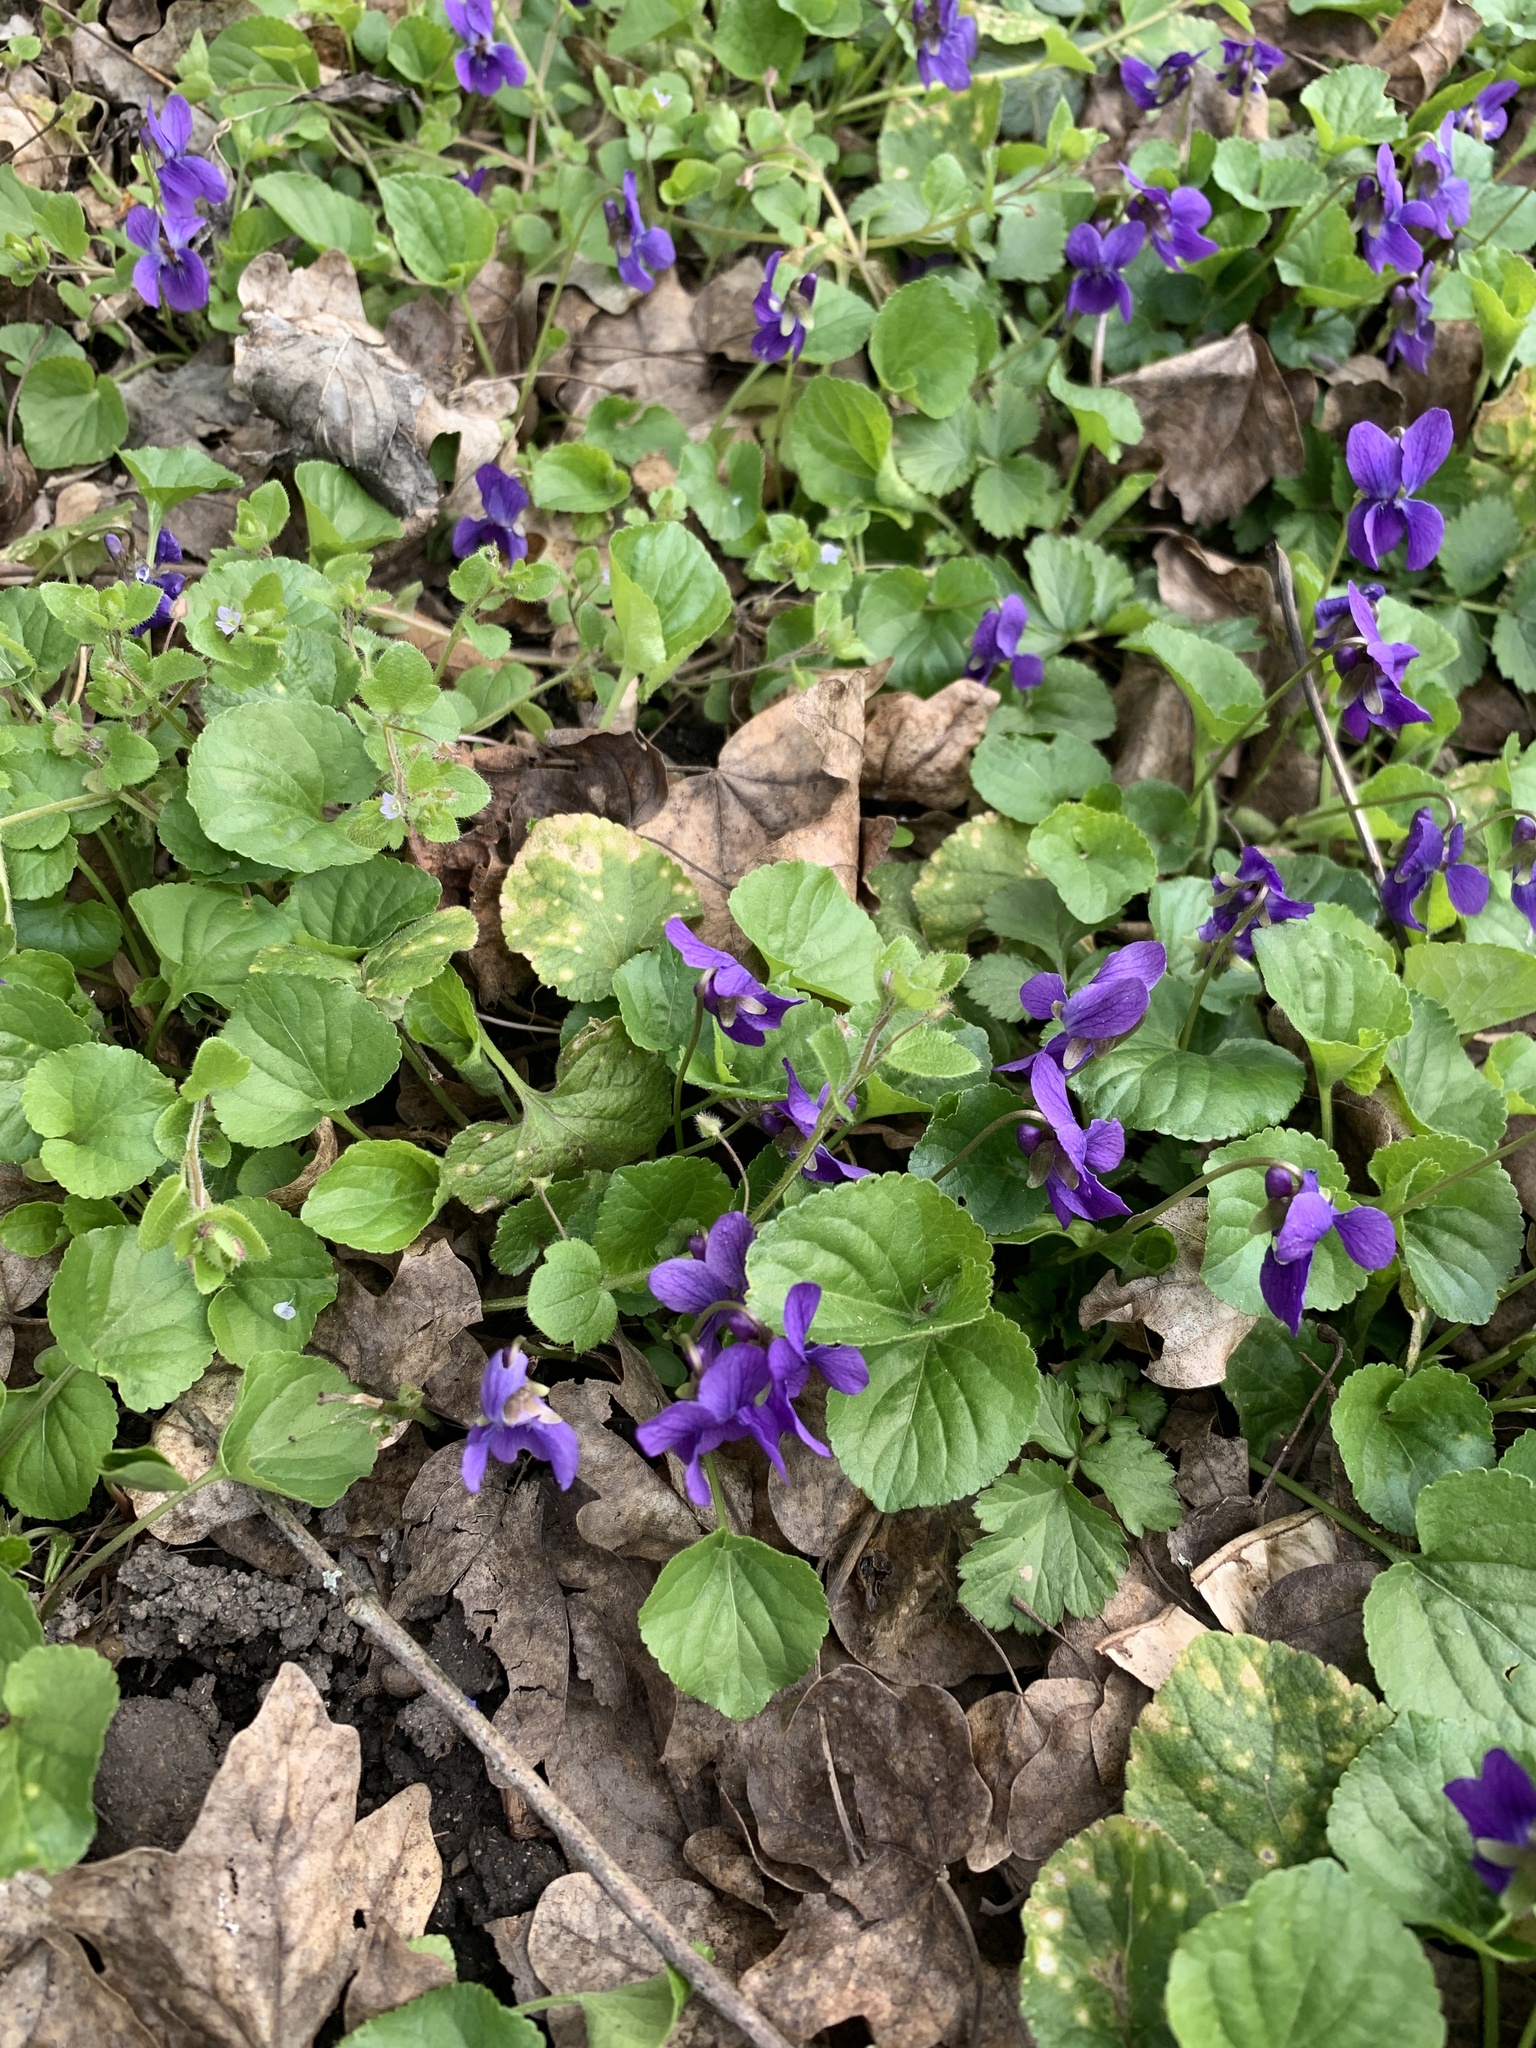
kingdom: Plantae
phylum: Tracheophyta
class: Magnoliopsida
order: Malpighiales
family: Violaceae
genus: Viola
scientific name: Viola odorata
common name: Sweet violet
